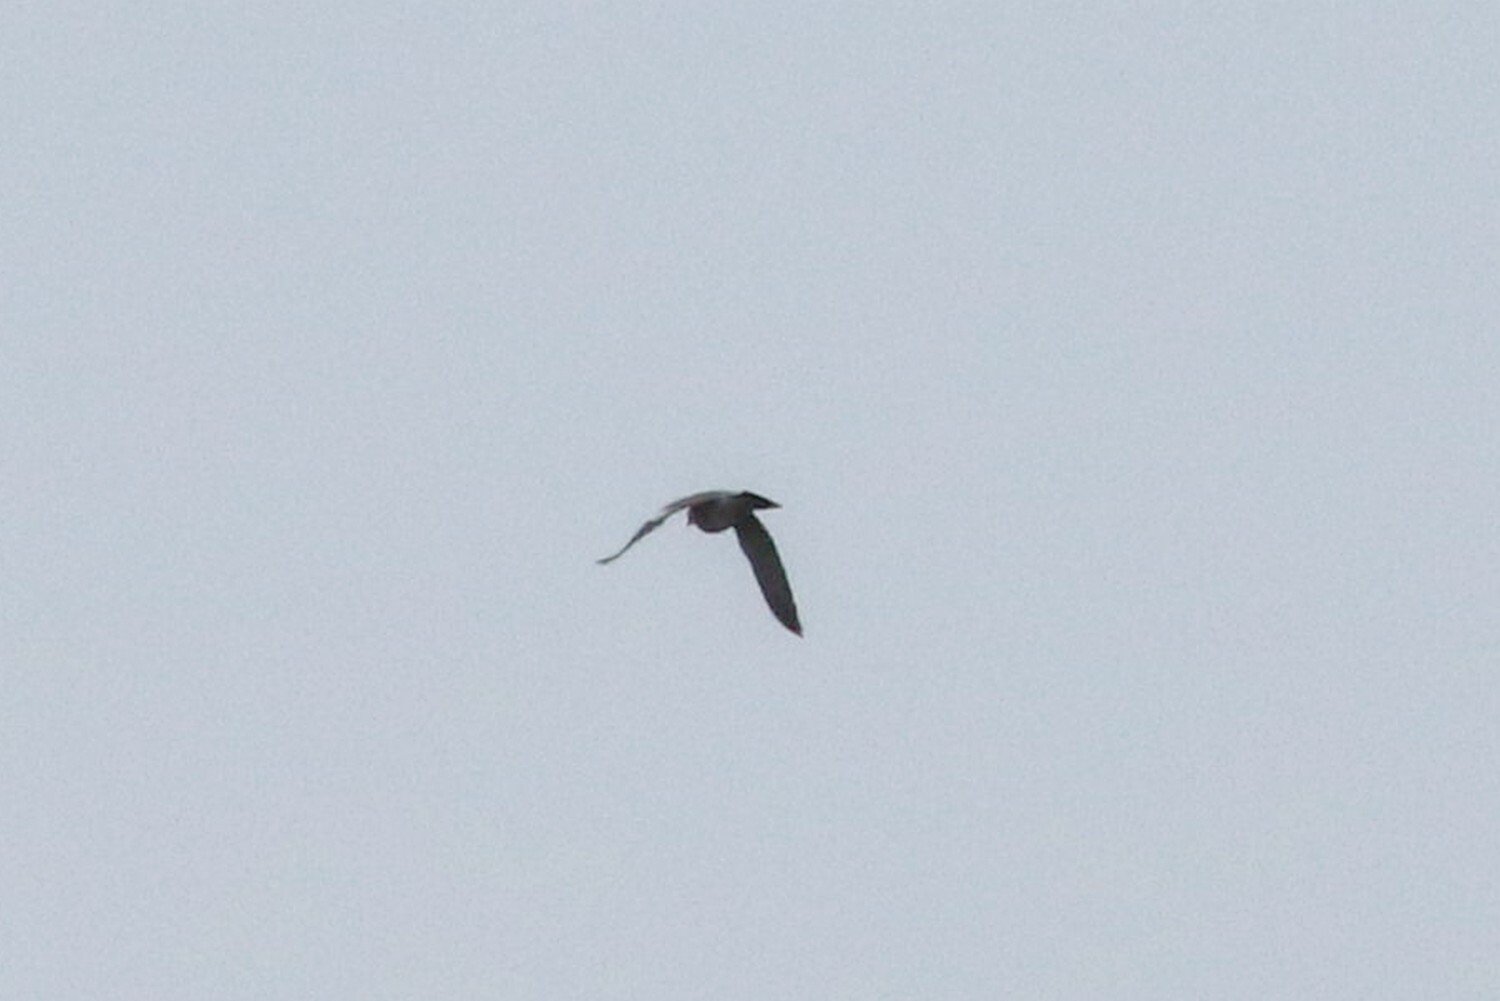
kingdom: Animalia
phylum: Chordata
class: Aves
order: Columbiformes
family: Columbidae
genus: Columba
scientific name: Columba palumbus
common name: Common wood pigeon
